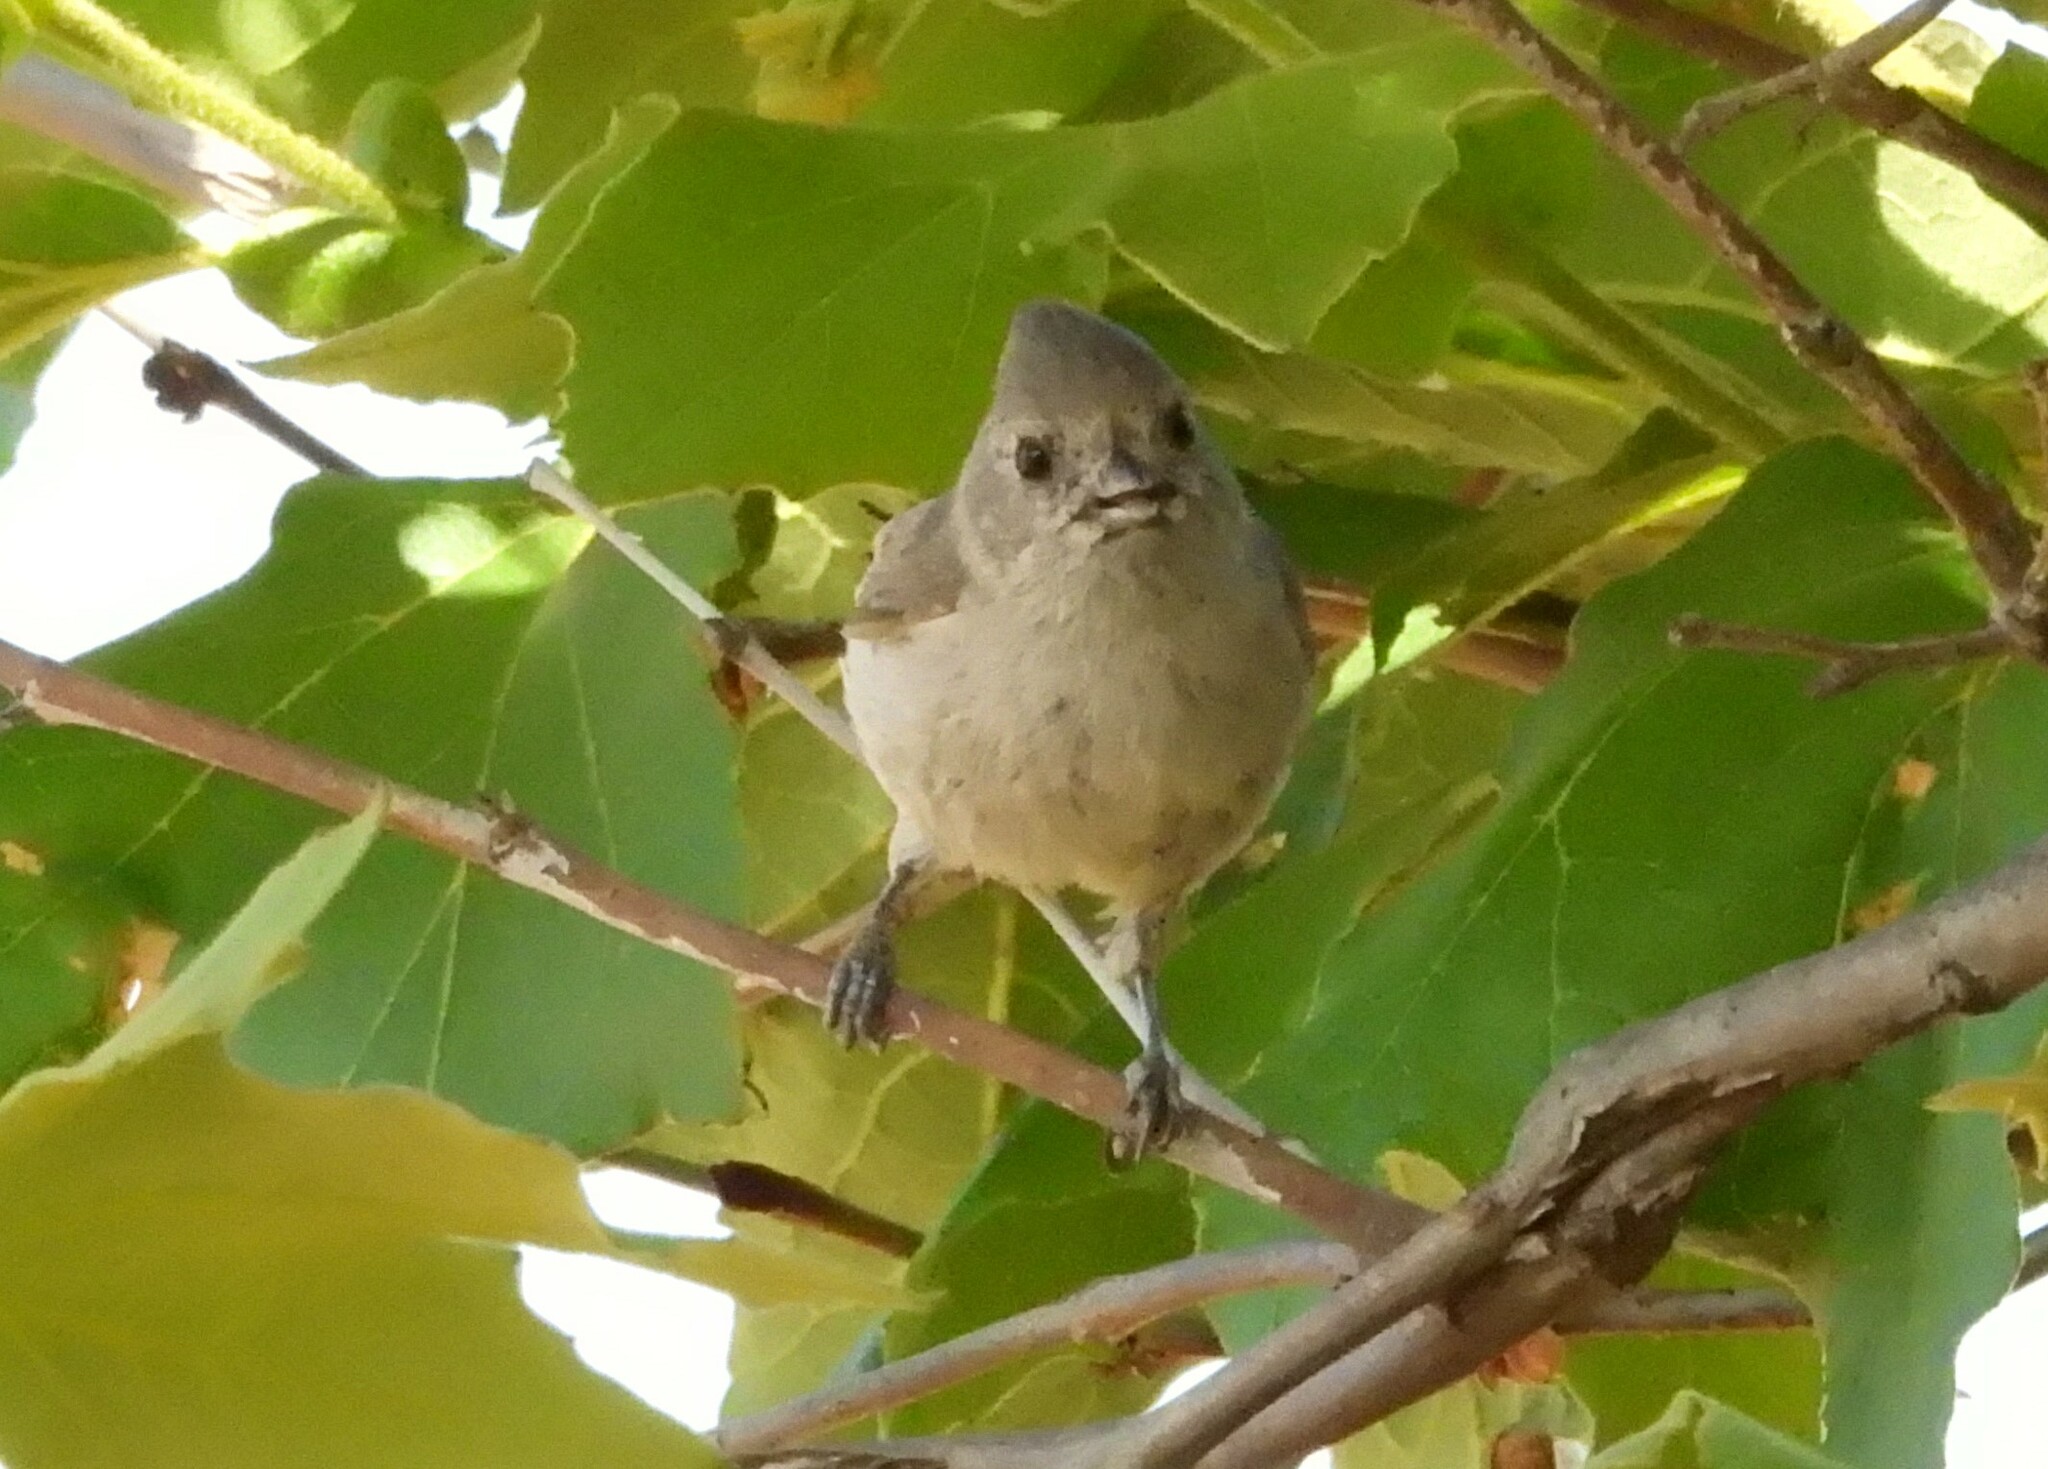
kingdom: Animalia
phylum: Chordata
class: Aves
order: Passeriformes
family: Paridae
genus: Baeolophus
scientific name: Baeolophus inornatus
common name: Oak titmouse
